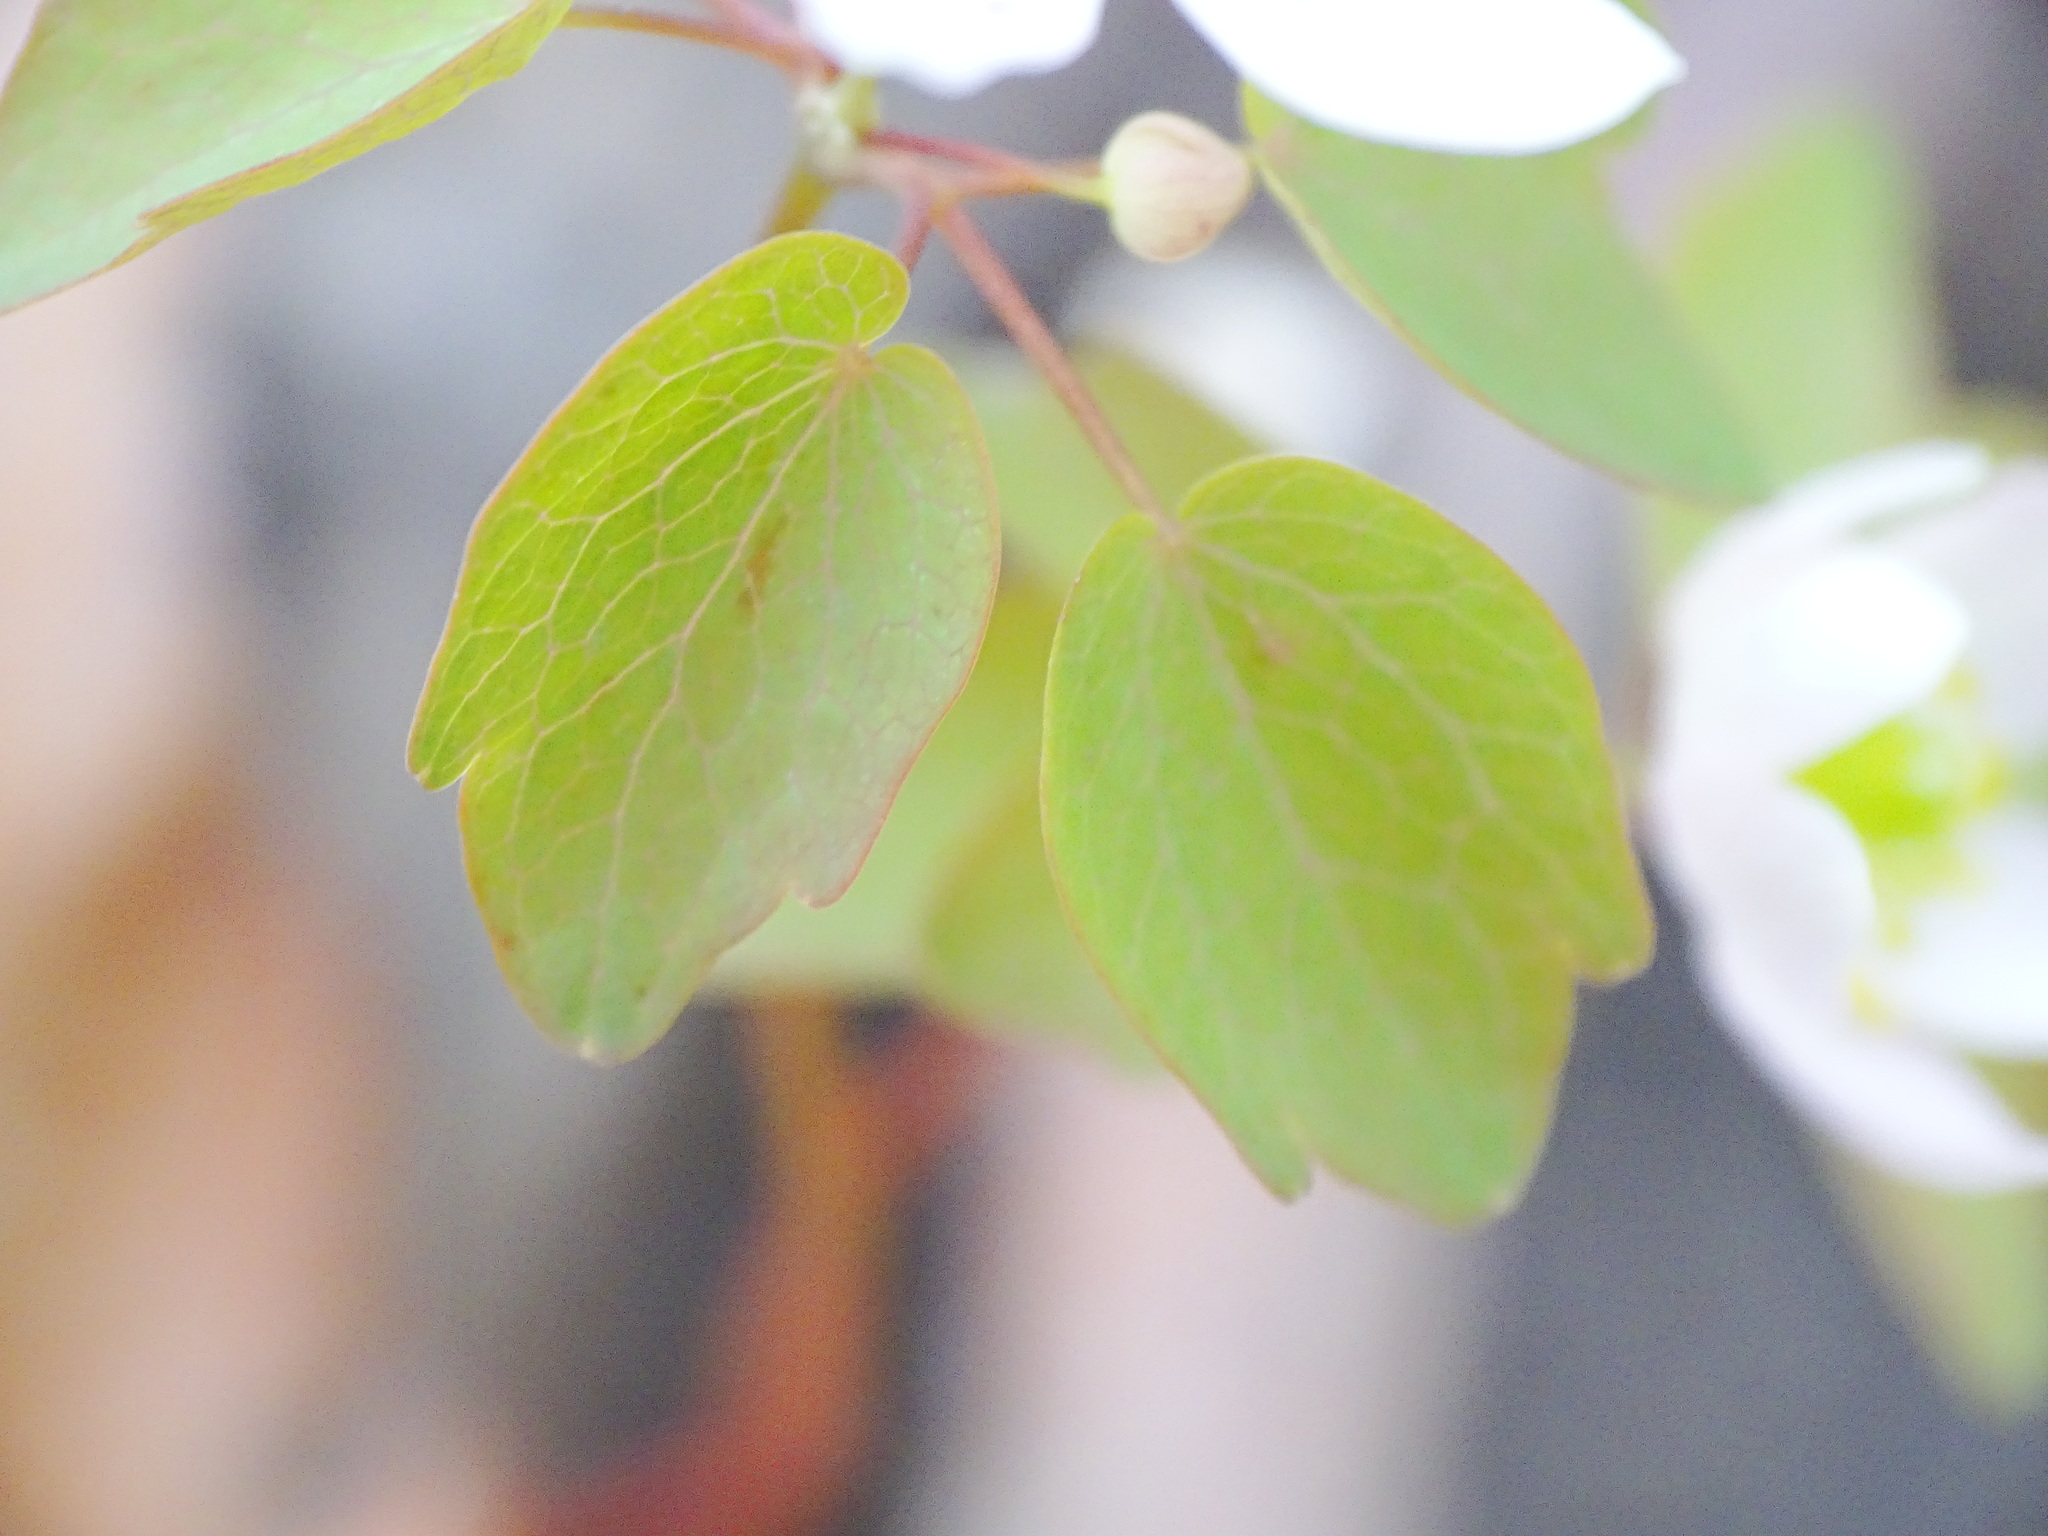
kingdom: Plantae
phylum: Tracheophyta
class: Magnoliopsida
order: Ranunculales
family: Ranunculaceae
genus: Thalictrum
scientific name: Thalictrum thalictroides
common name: Rue-anemone
